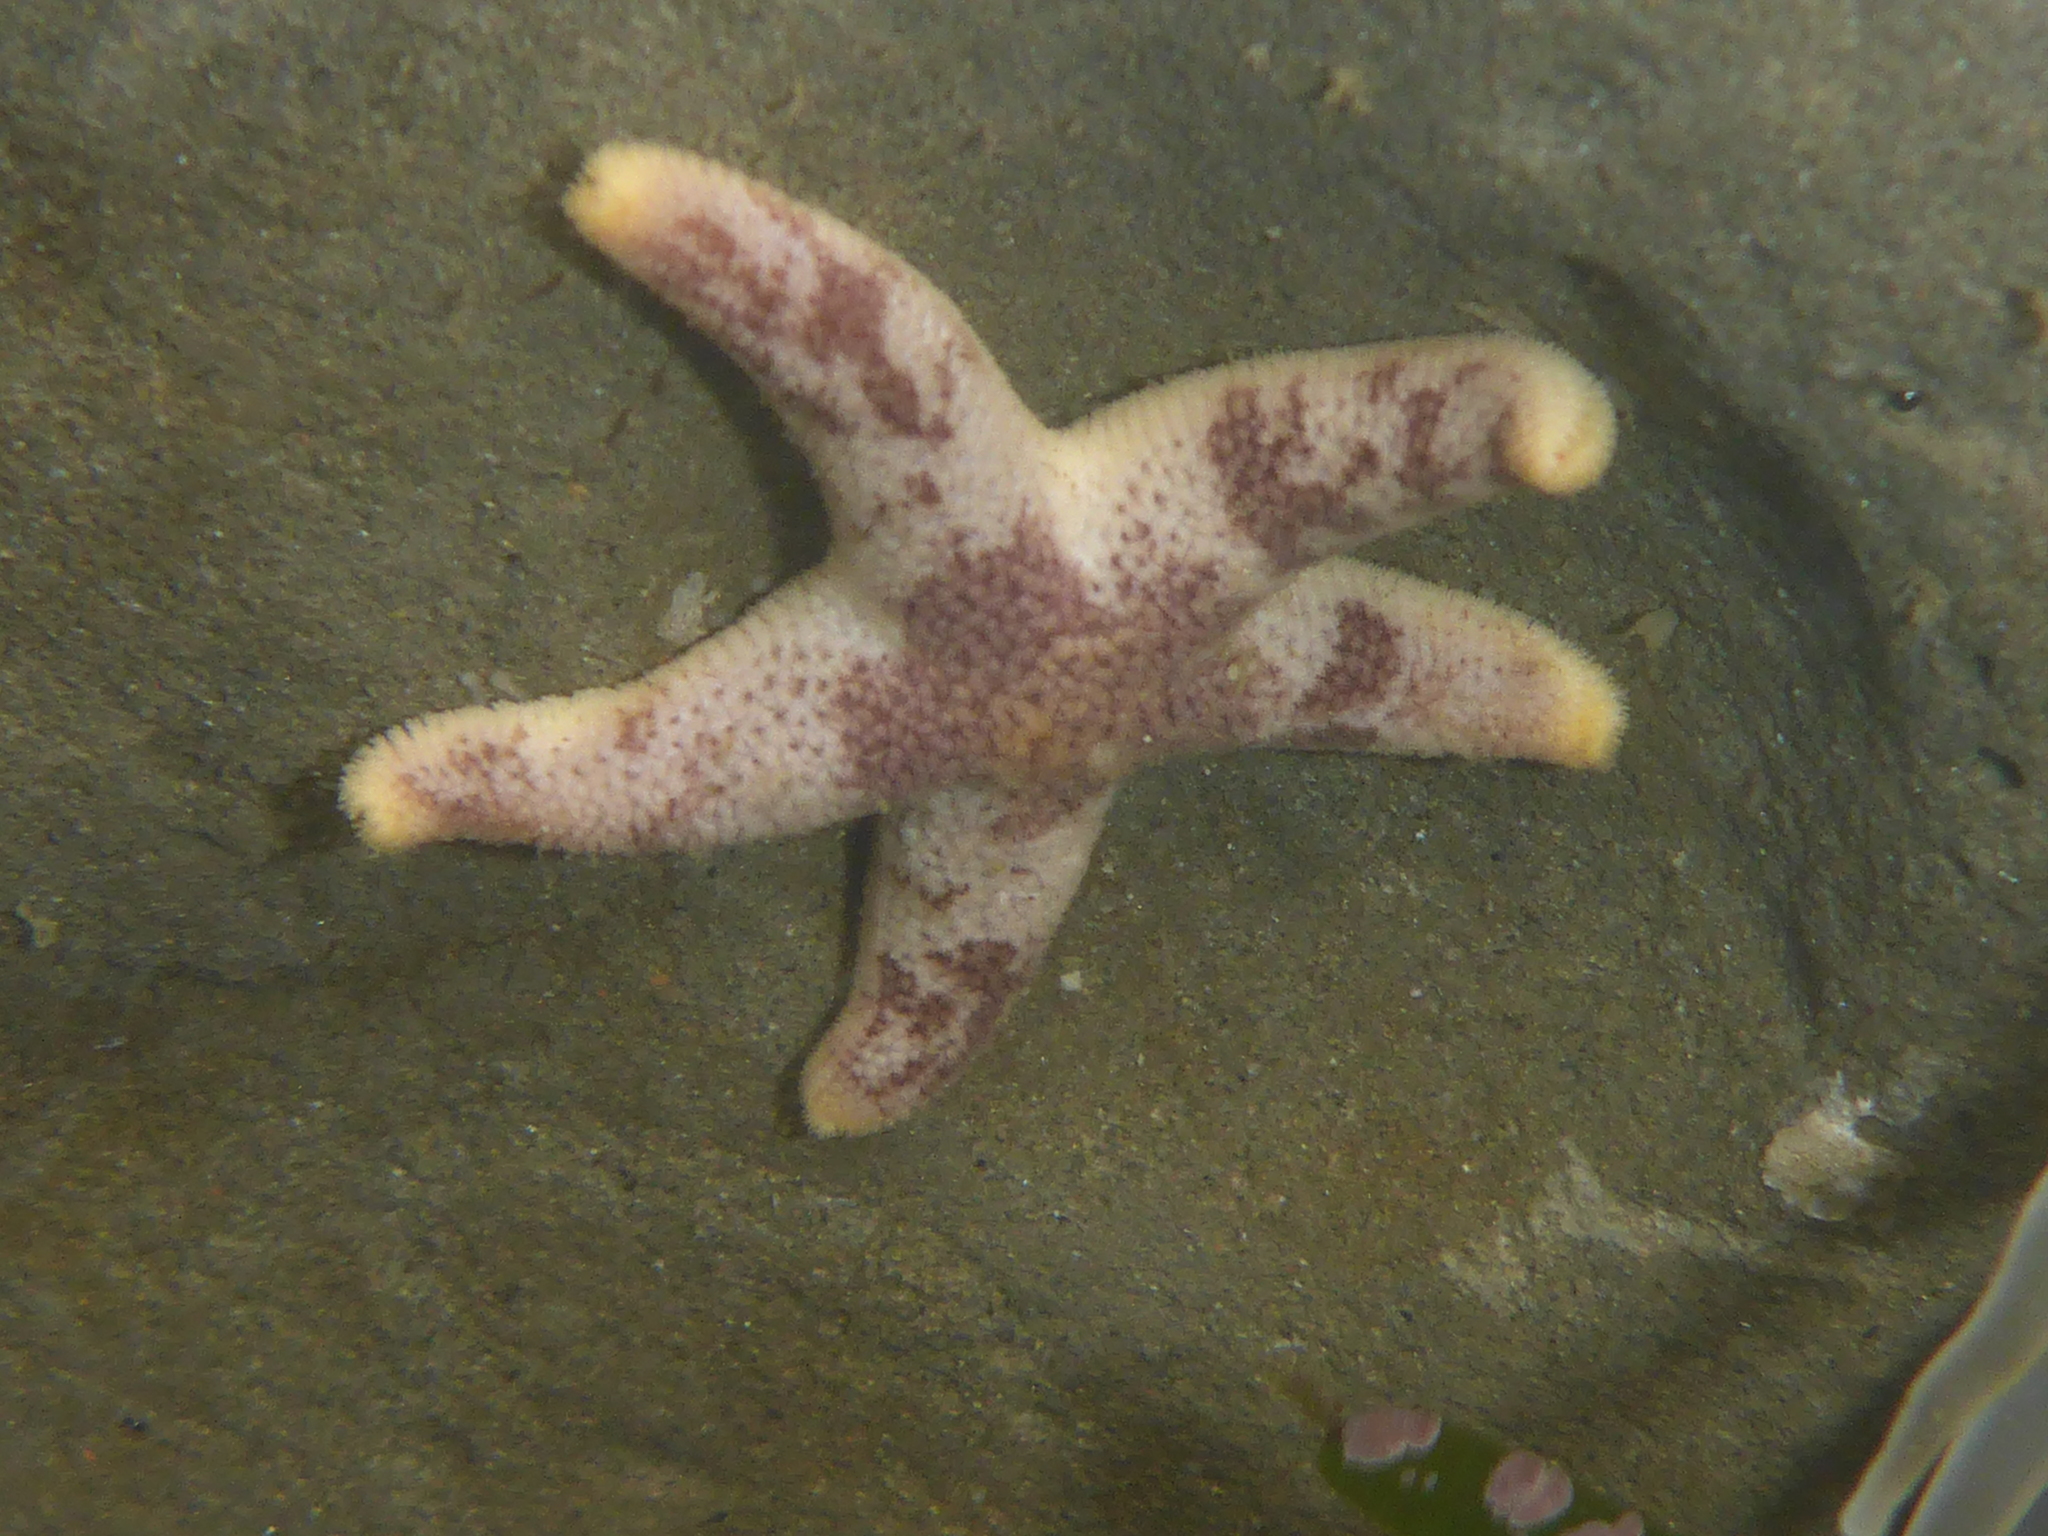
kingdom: Animalia
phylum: Echinodermata
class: Asteroidea
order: Spinulosida
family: Echinasteridae
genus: Henricia
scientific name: Henricia pumila
